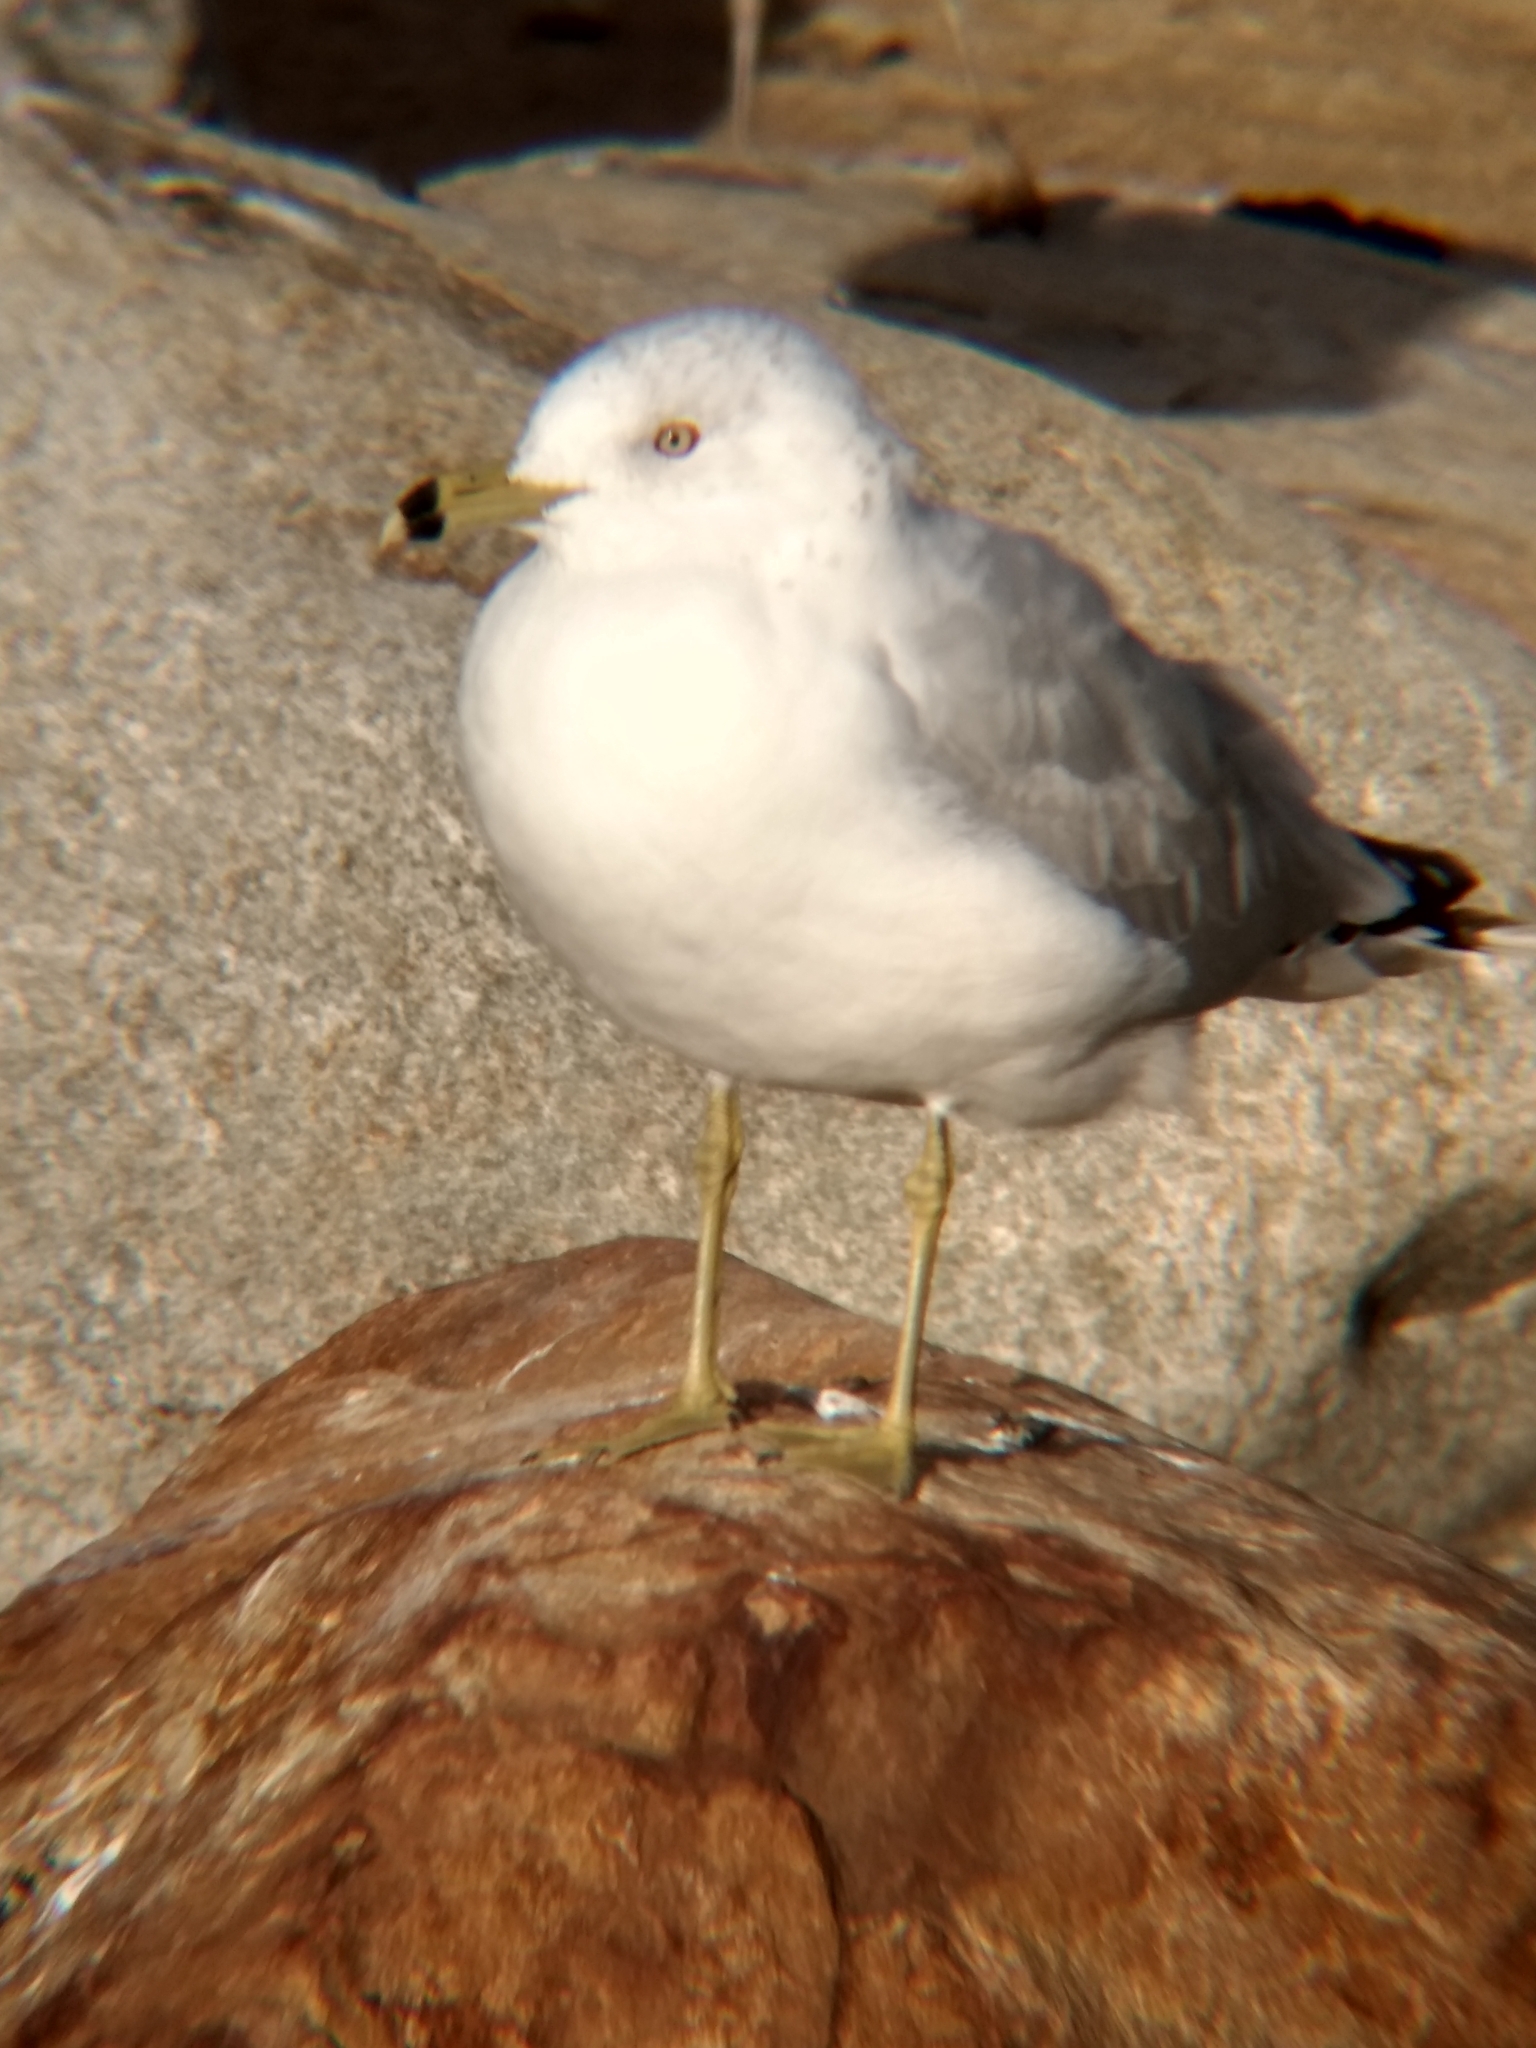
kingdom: Animalia
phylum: Chordata
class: Aves
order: Charadriiformes
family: Laridae
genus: Larus
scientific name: Larus delawarensis
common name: Ring-billed gull
